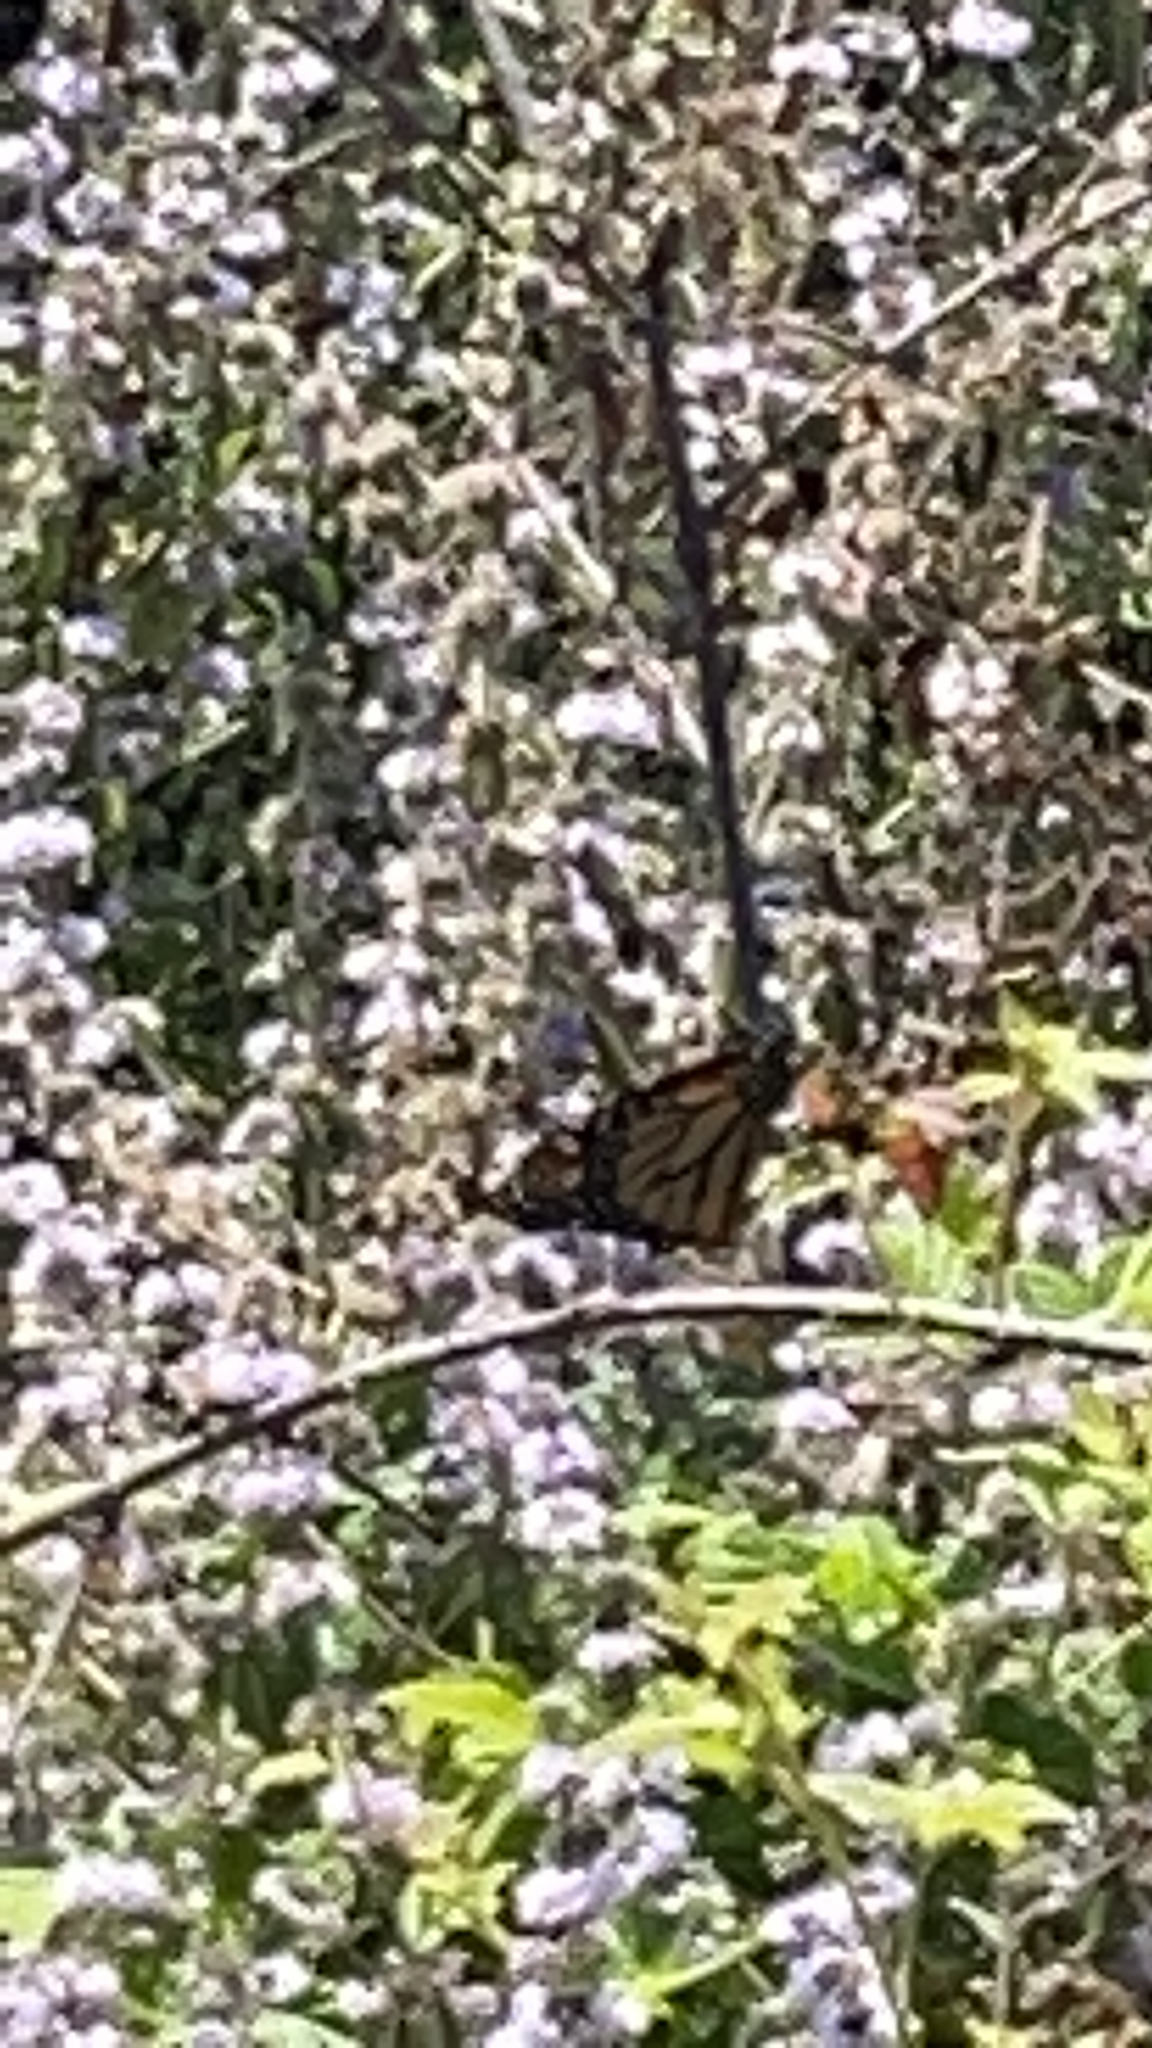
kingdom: Animalia
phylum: Arthropoda
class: Insecta
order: Lepidoptera
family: Nymphalidae
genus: Danaus
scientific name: Danaus plexippus
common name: Monarch
